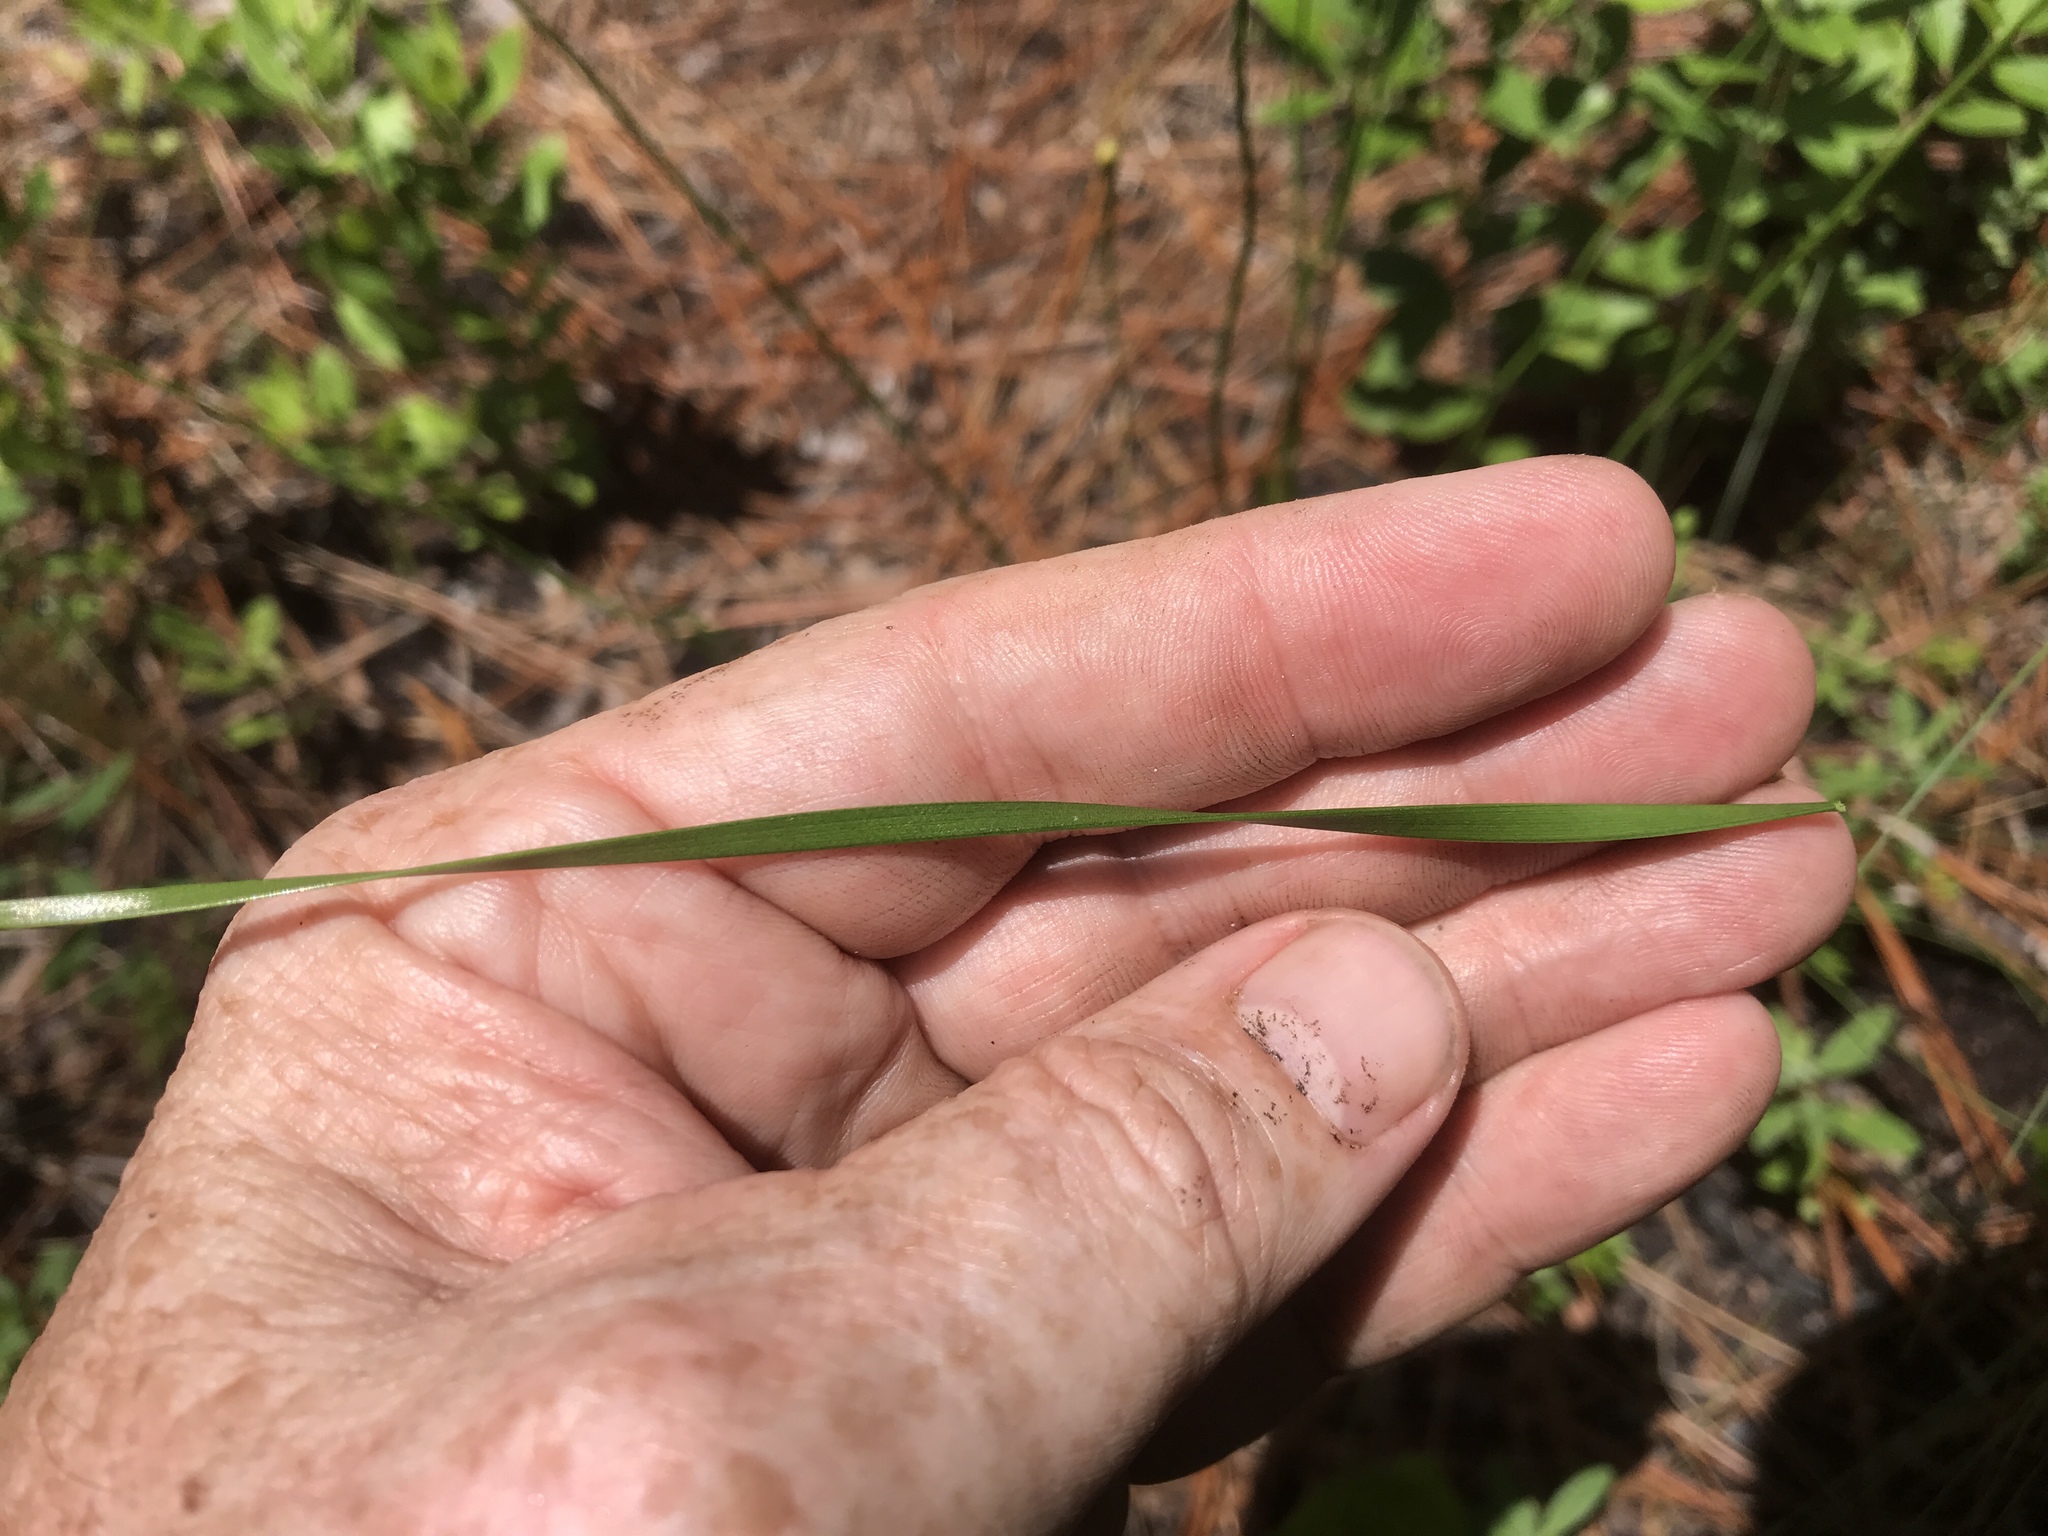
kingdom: Plantae
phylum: Tracheophyta
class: Liliopsida
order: Poales
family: Xyridaceae
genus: Xyris
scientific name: Xyris caroliniana
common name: Carolina yellow-eyed-grass
